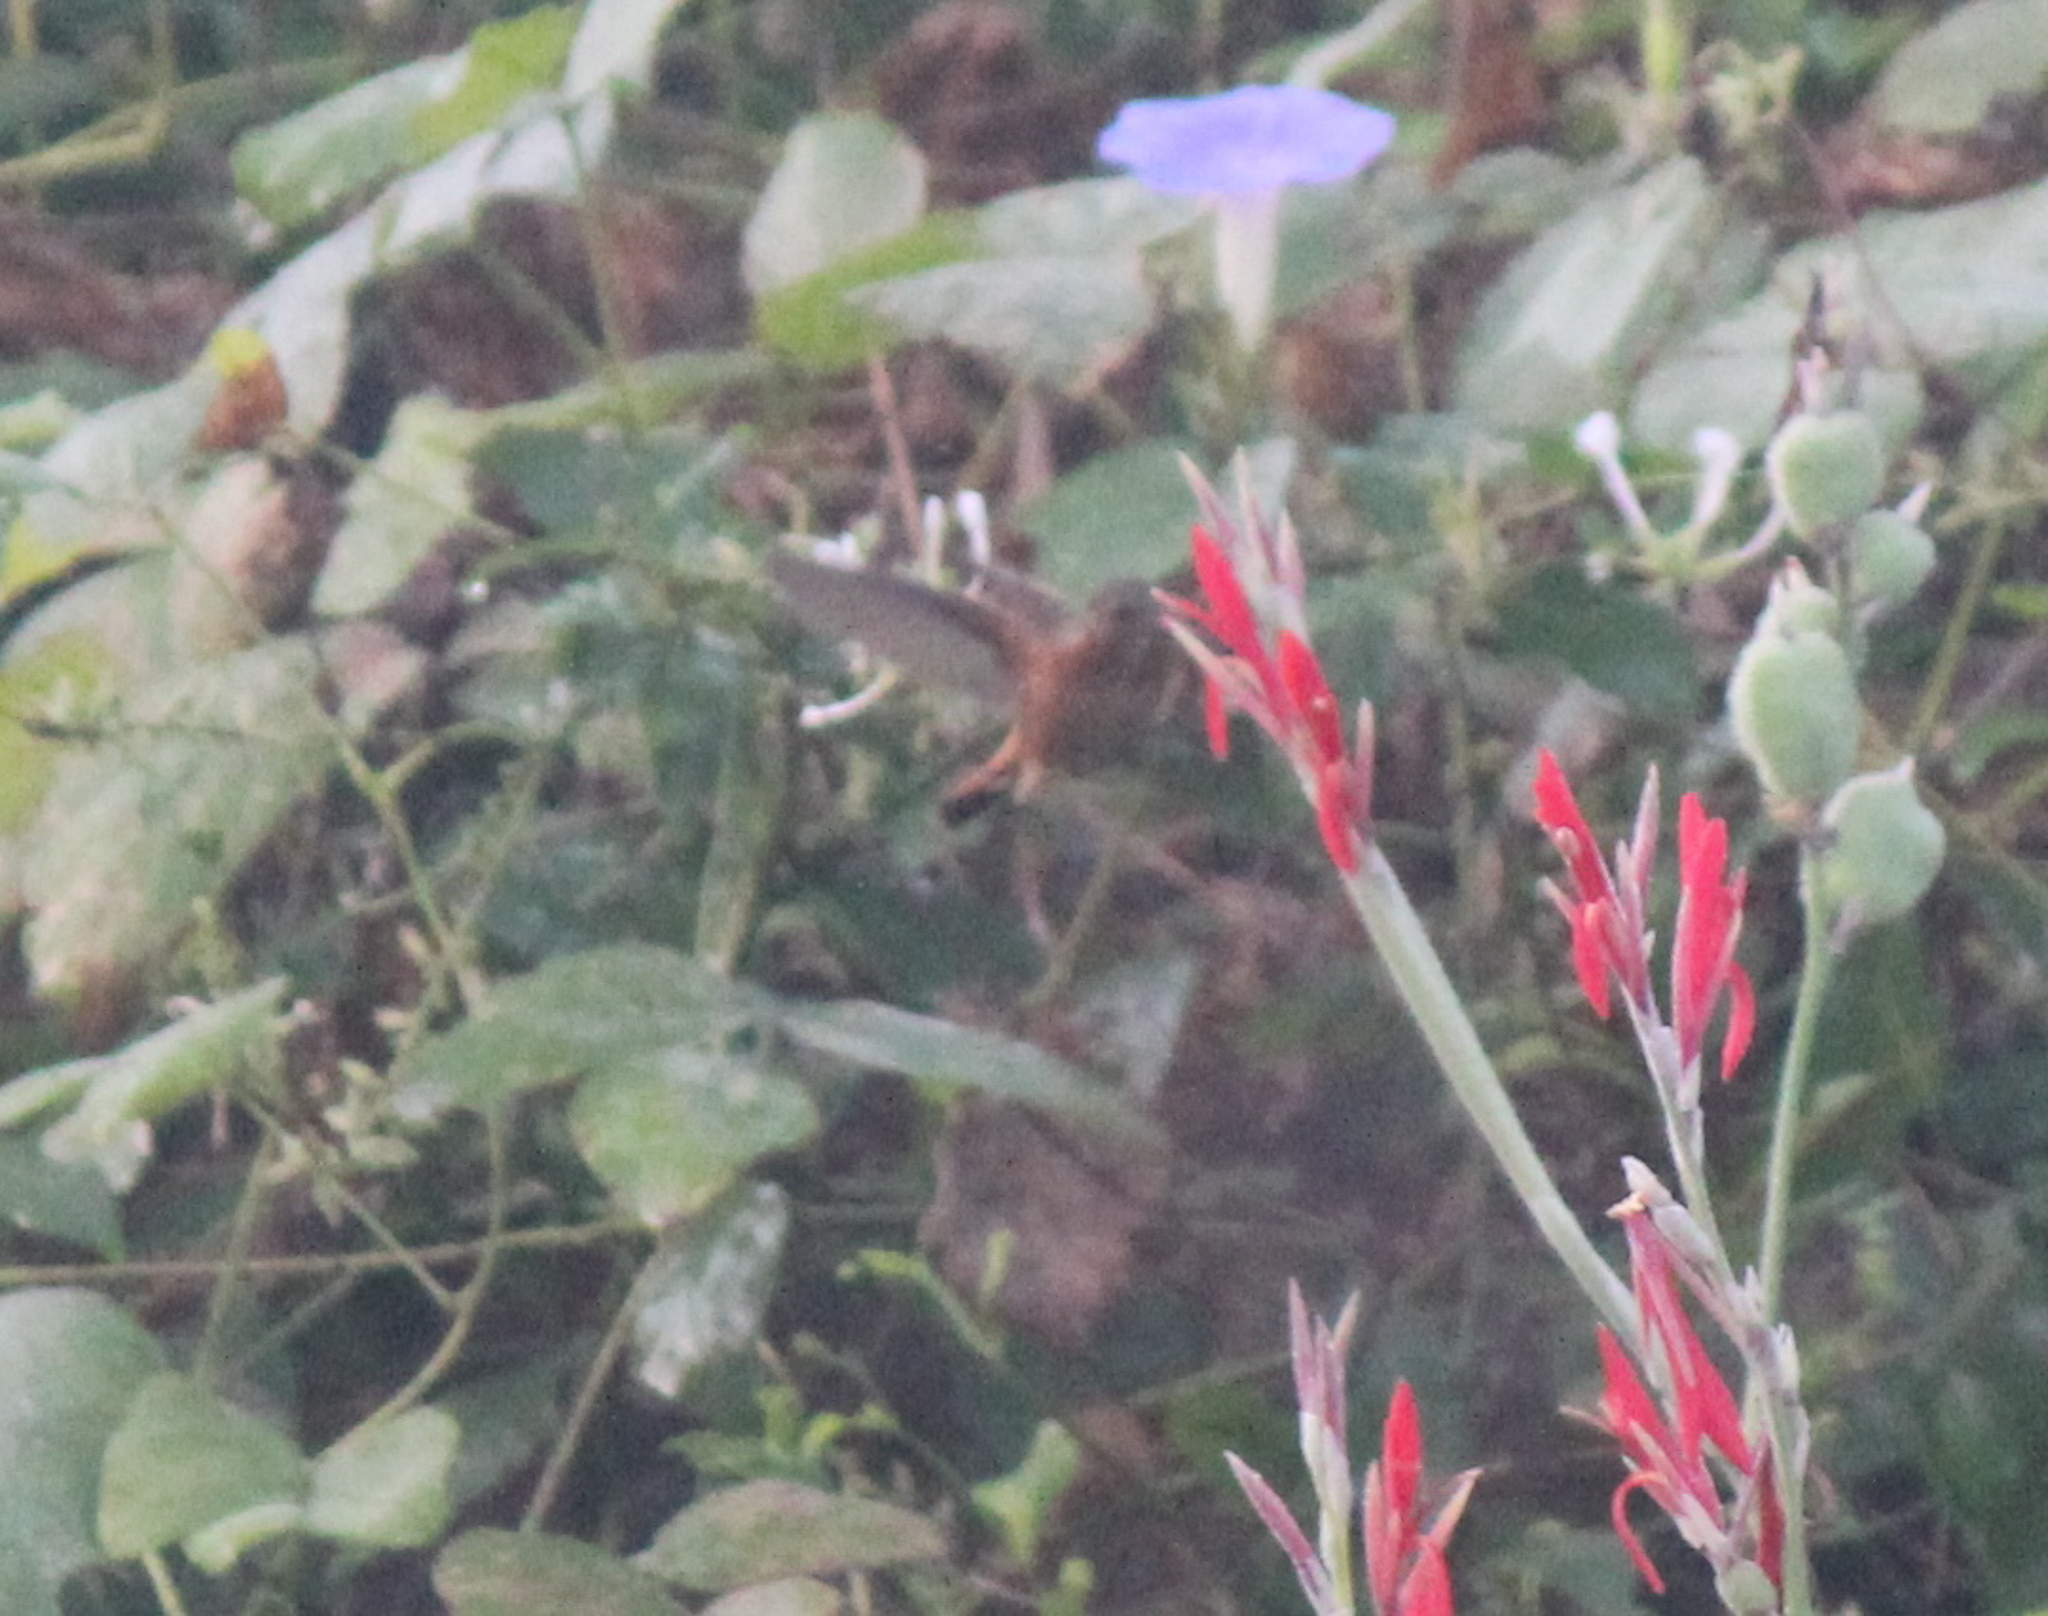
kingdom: Animalia
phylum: Chordata
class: Aves
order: Apodiformes
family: Trochilidae
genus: Amazilia
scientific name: Amazilia rutila
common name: Cinnamon hummingbird
